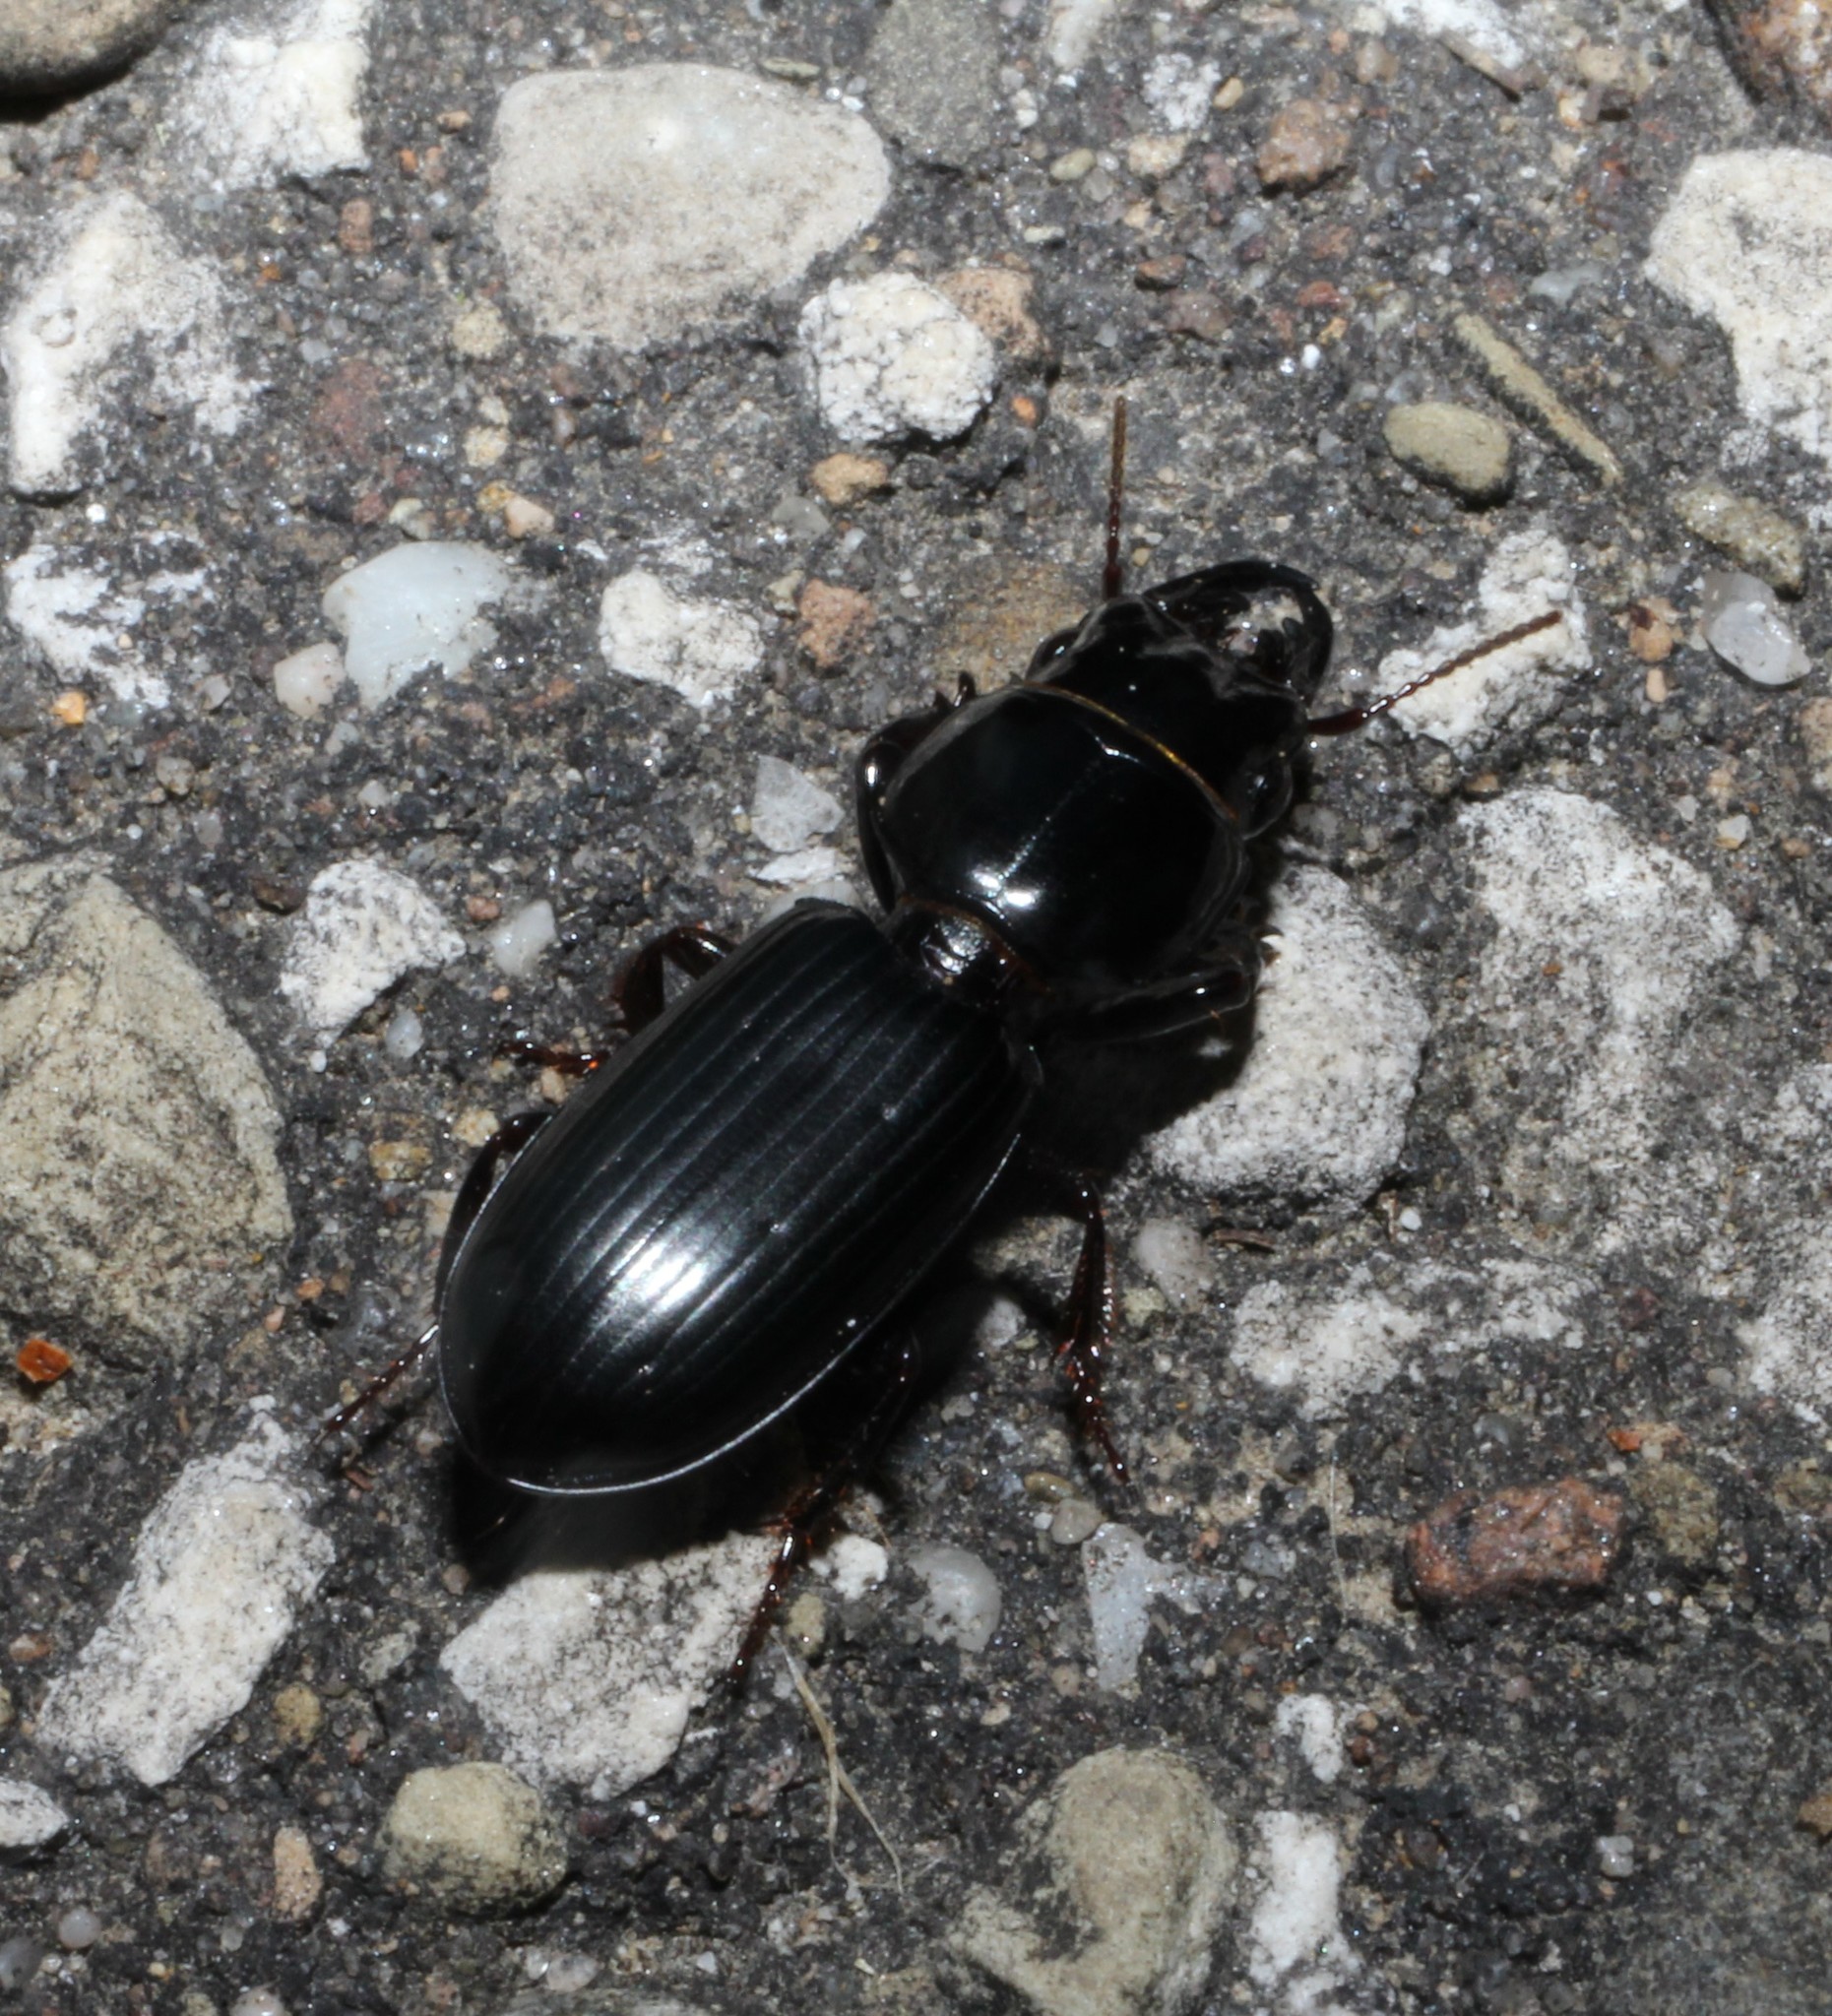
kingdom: Animalia
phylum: Arthropoda
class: Insecta
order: Coleoptera
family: Carabidae
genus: Scarites
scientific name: Scarites subterraneus
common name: Big-headed ground beetle
